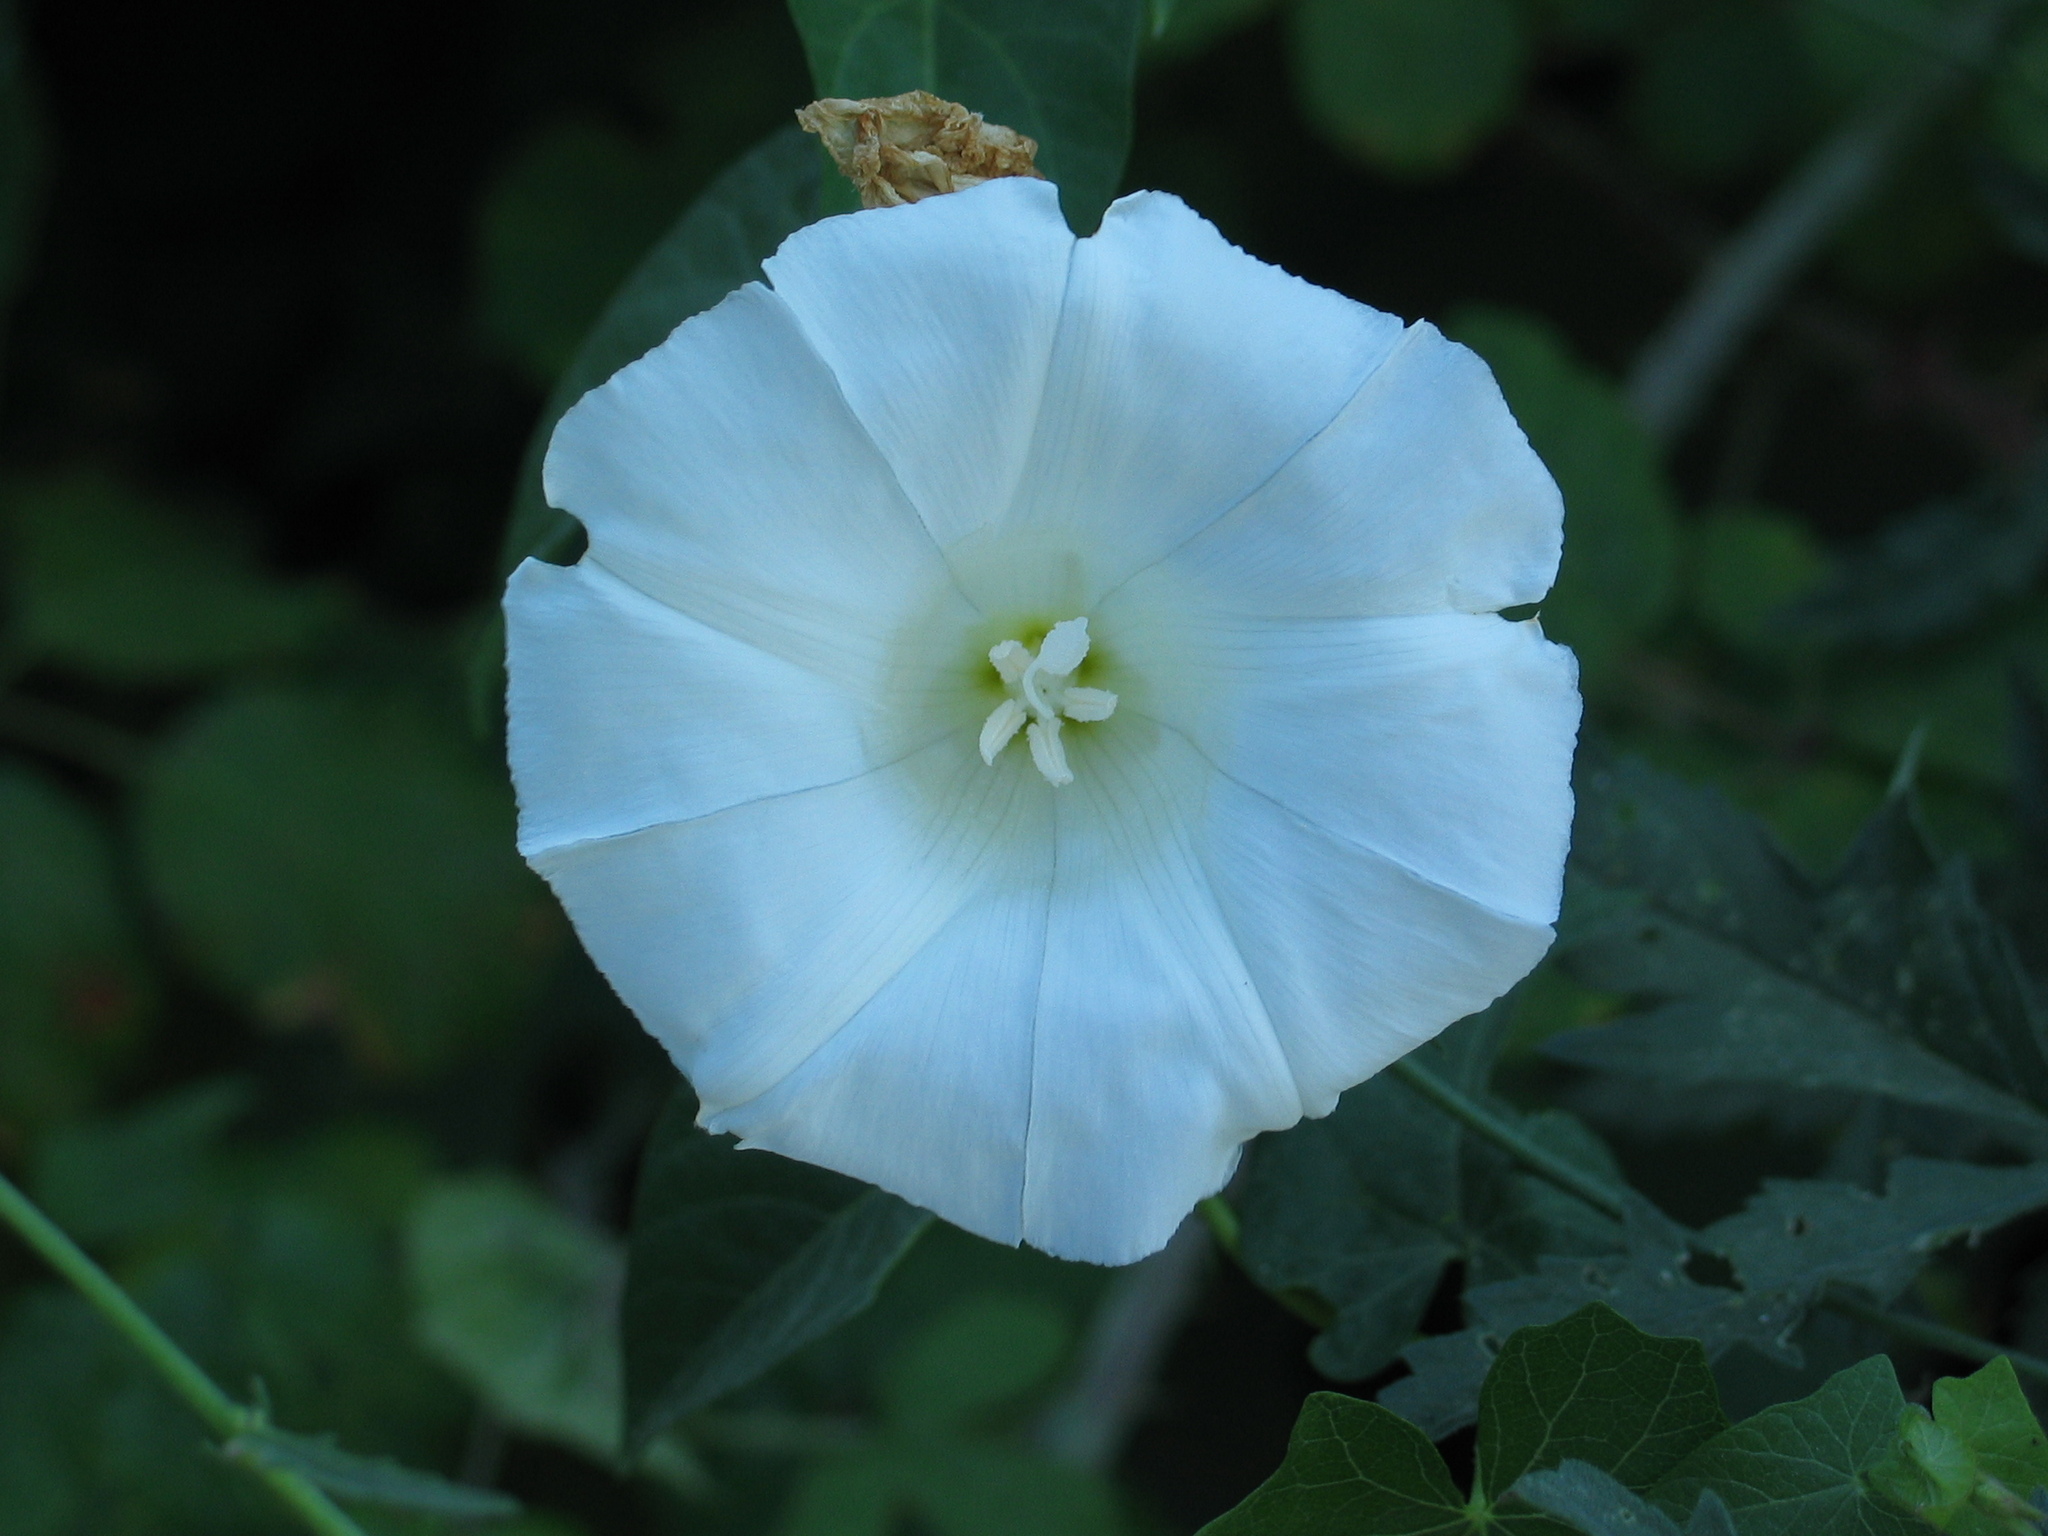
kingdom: Plantae
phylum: Tracheophyta
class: Magnoliopsida
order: Solanales
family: Convolvulaceae
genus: Calystegia
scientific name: Calystegia sepium
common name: Hedge bindweed
